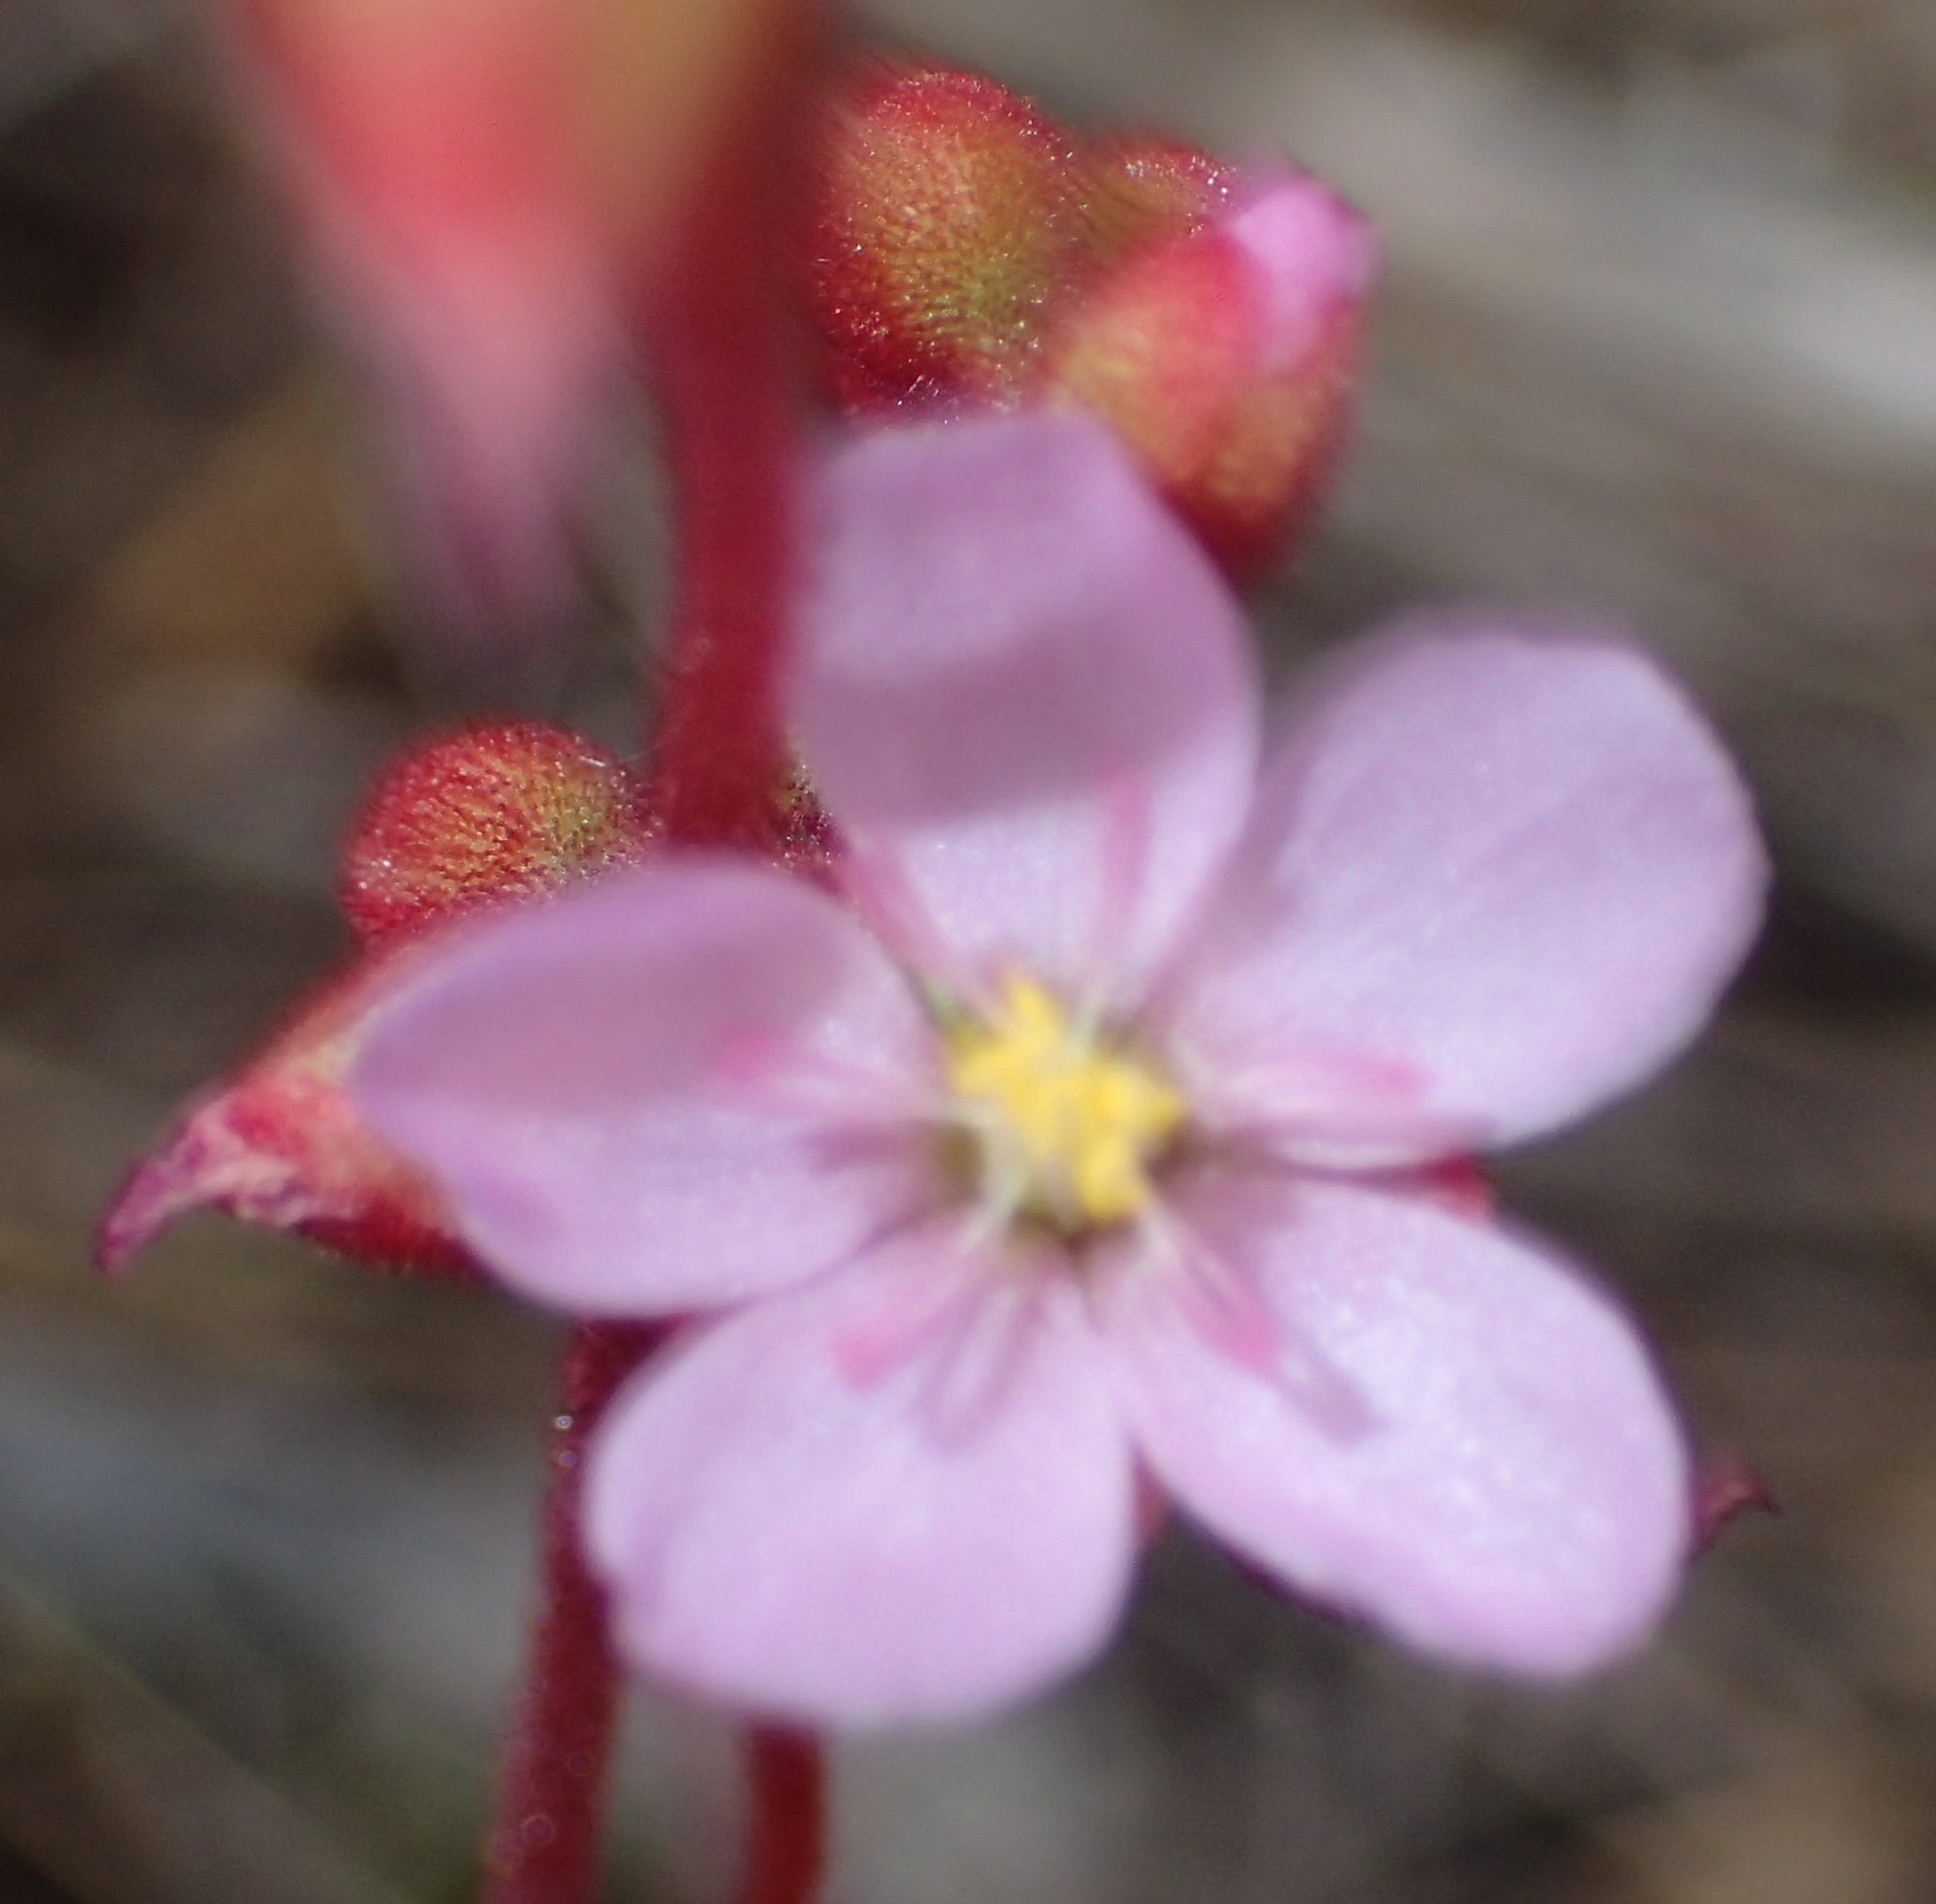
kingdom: Plantae
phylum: Tracheophyta
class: Magnoliopsida
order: Caryophyllales
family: Droseraceae
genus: Drosera
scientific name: Drosera aliciae
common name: Alice sundew
